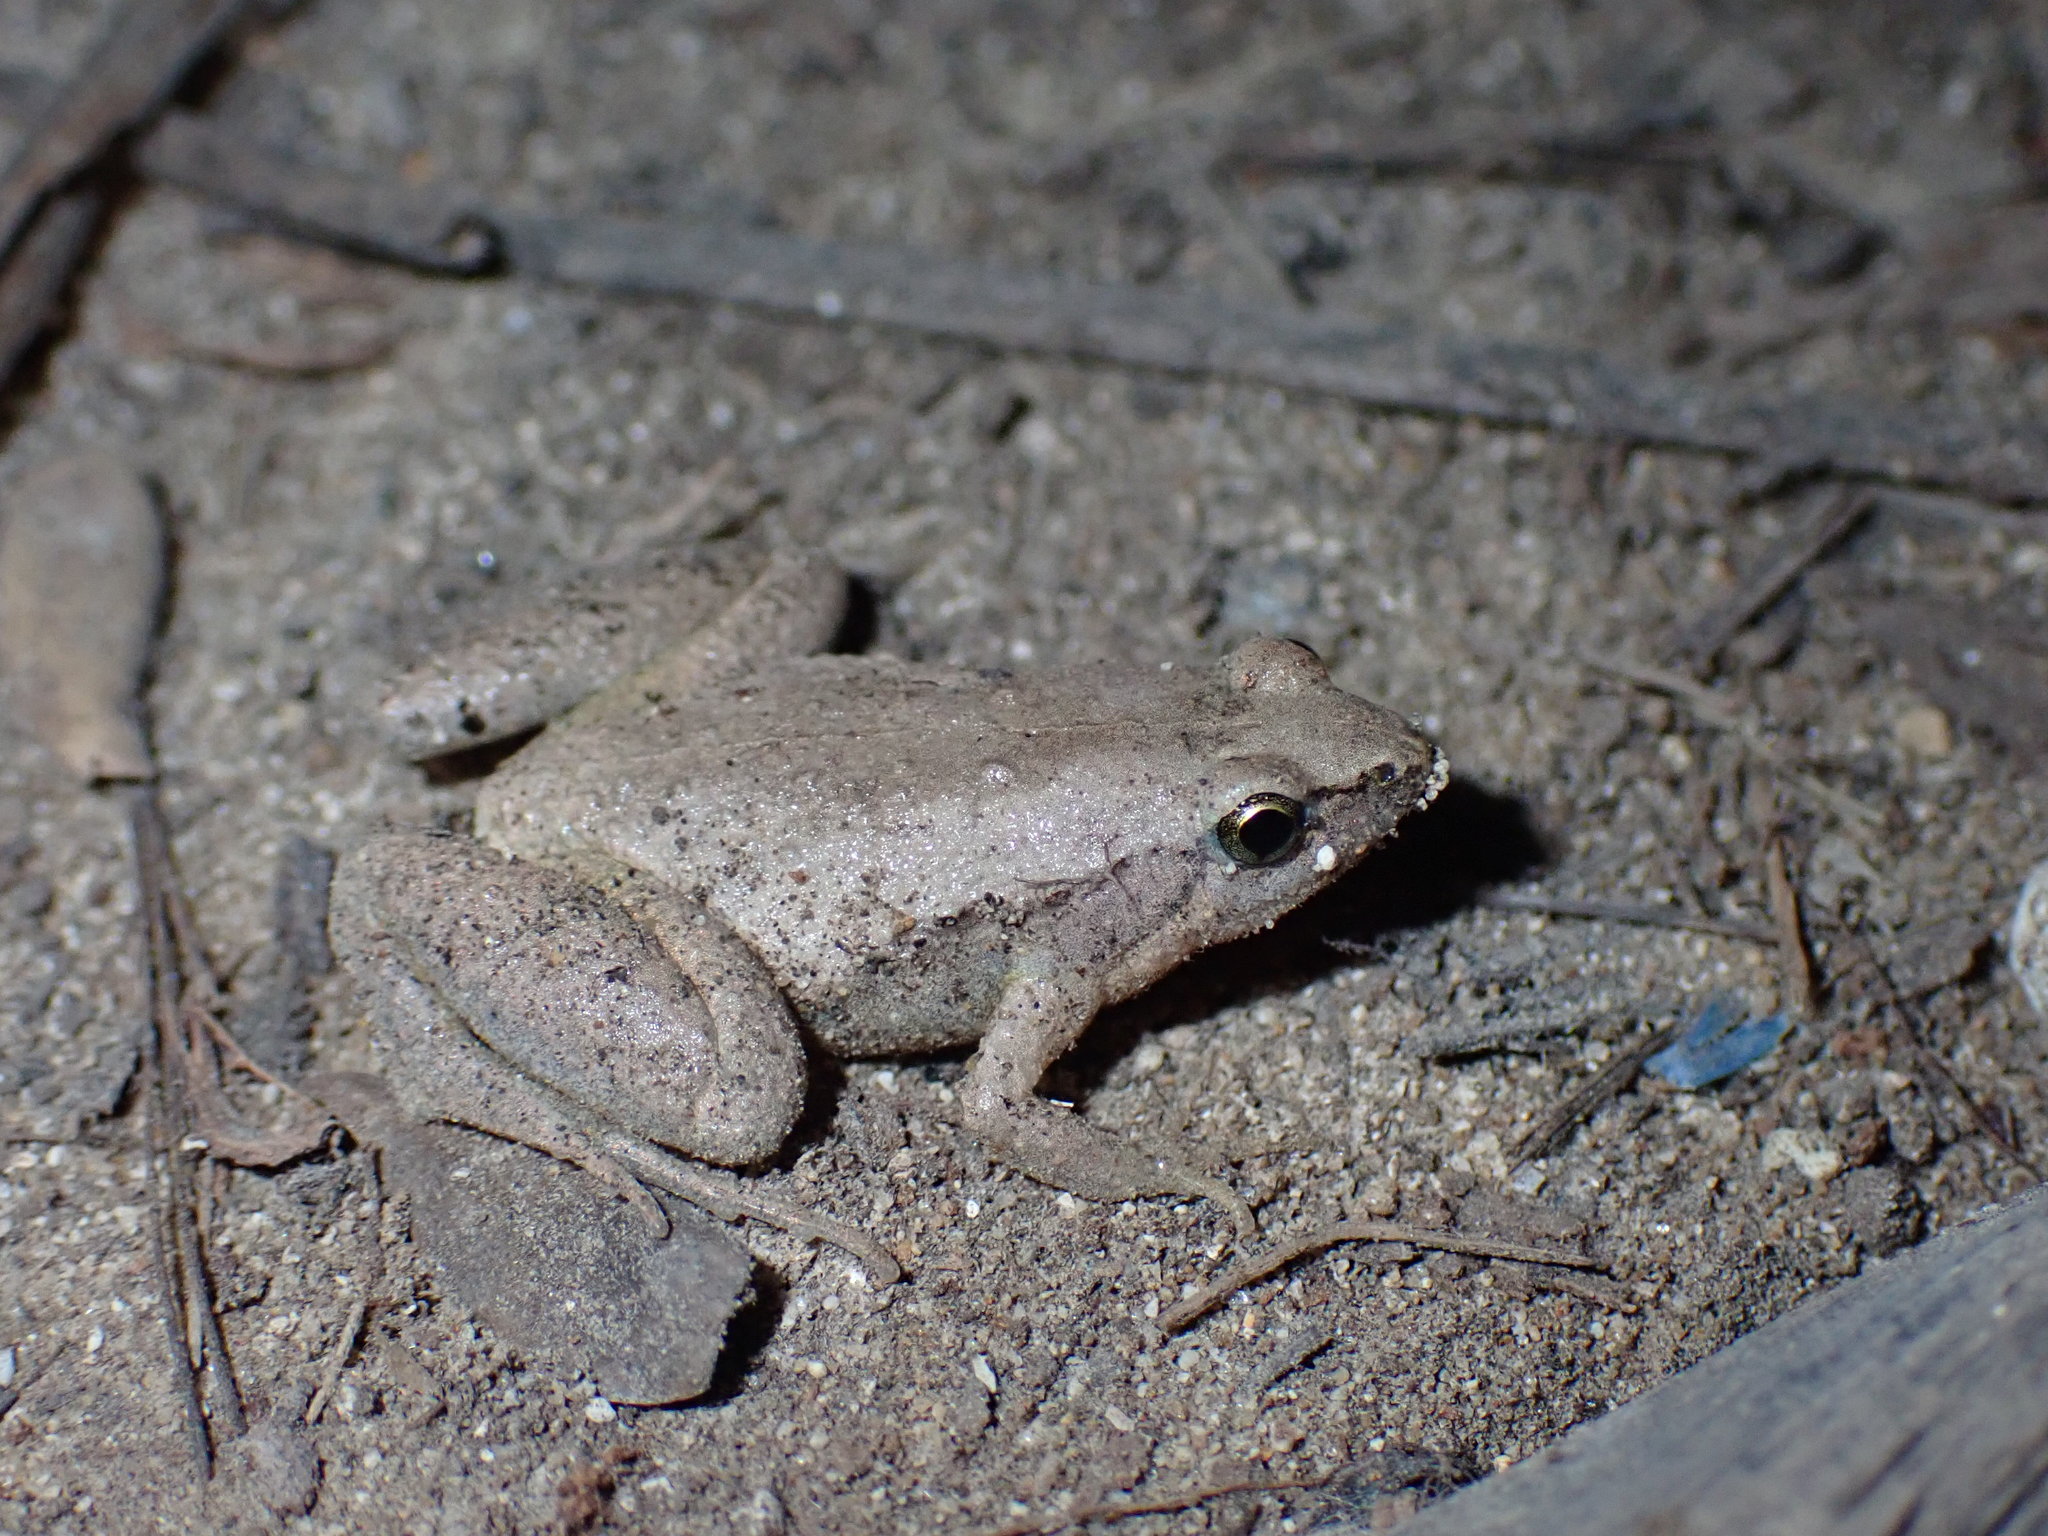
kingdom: Animalia
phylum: Chordata
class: Amphibia
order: Anura
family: Microhylidae
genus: Microhyla
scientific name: Microhyla mukhlesuri
